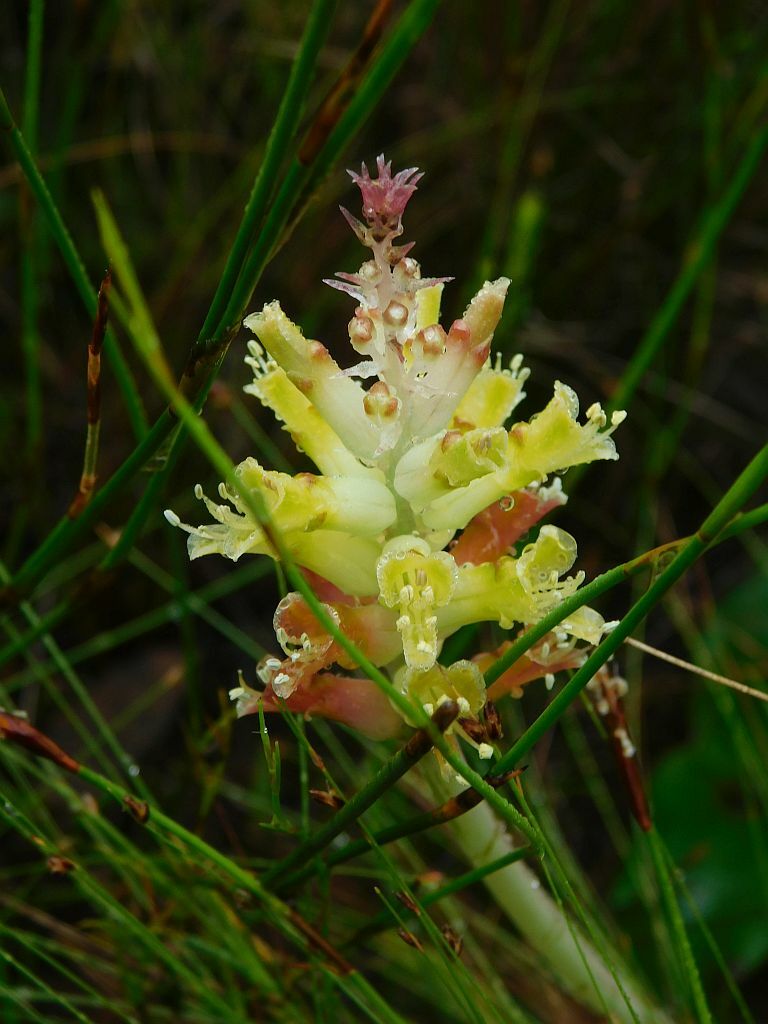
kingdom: Plantae
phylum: Tracheophyta
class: Liliopsida
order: Asparagales
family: Asparagaceae
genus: Lachenalia
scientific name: Lachenalia orchioides
